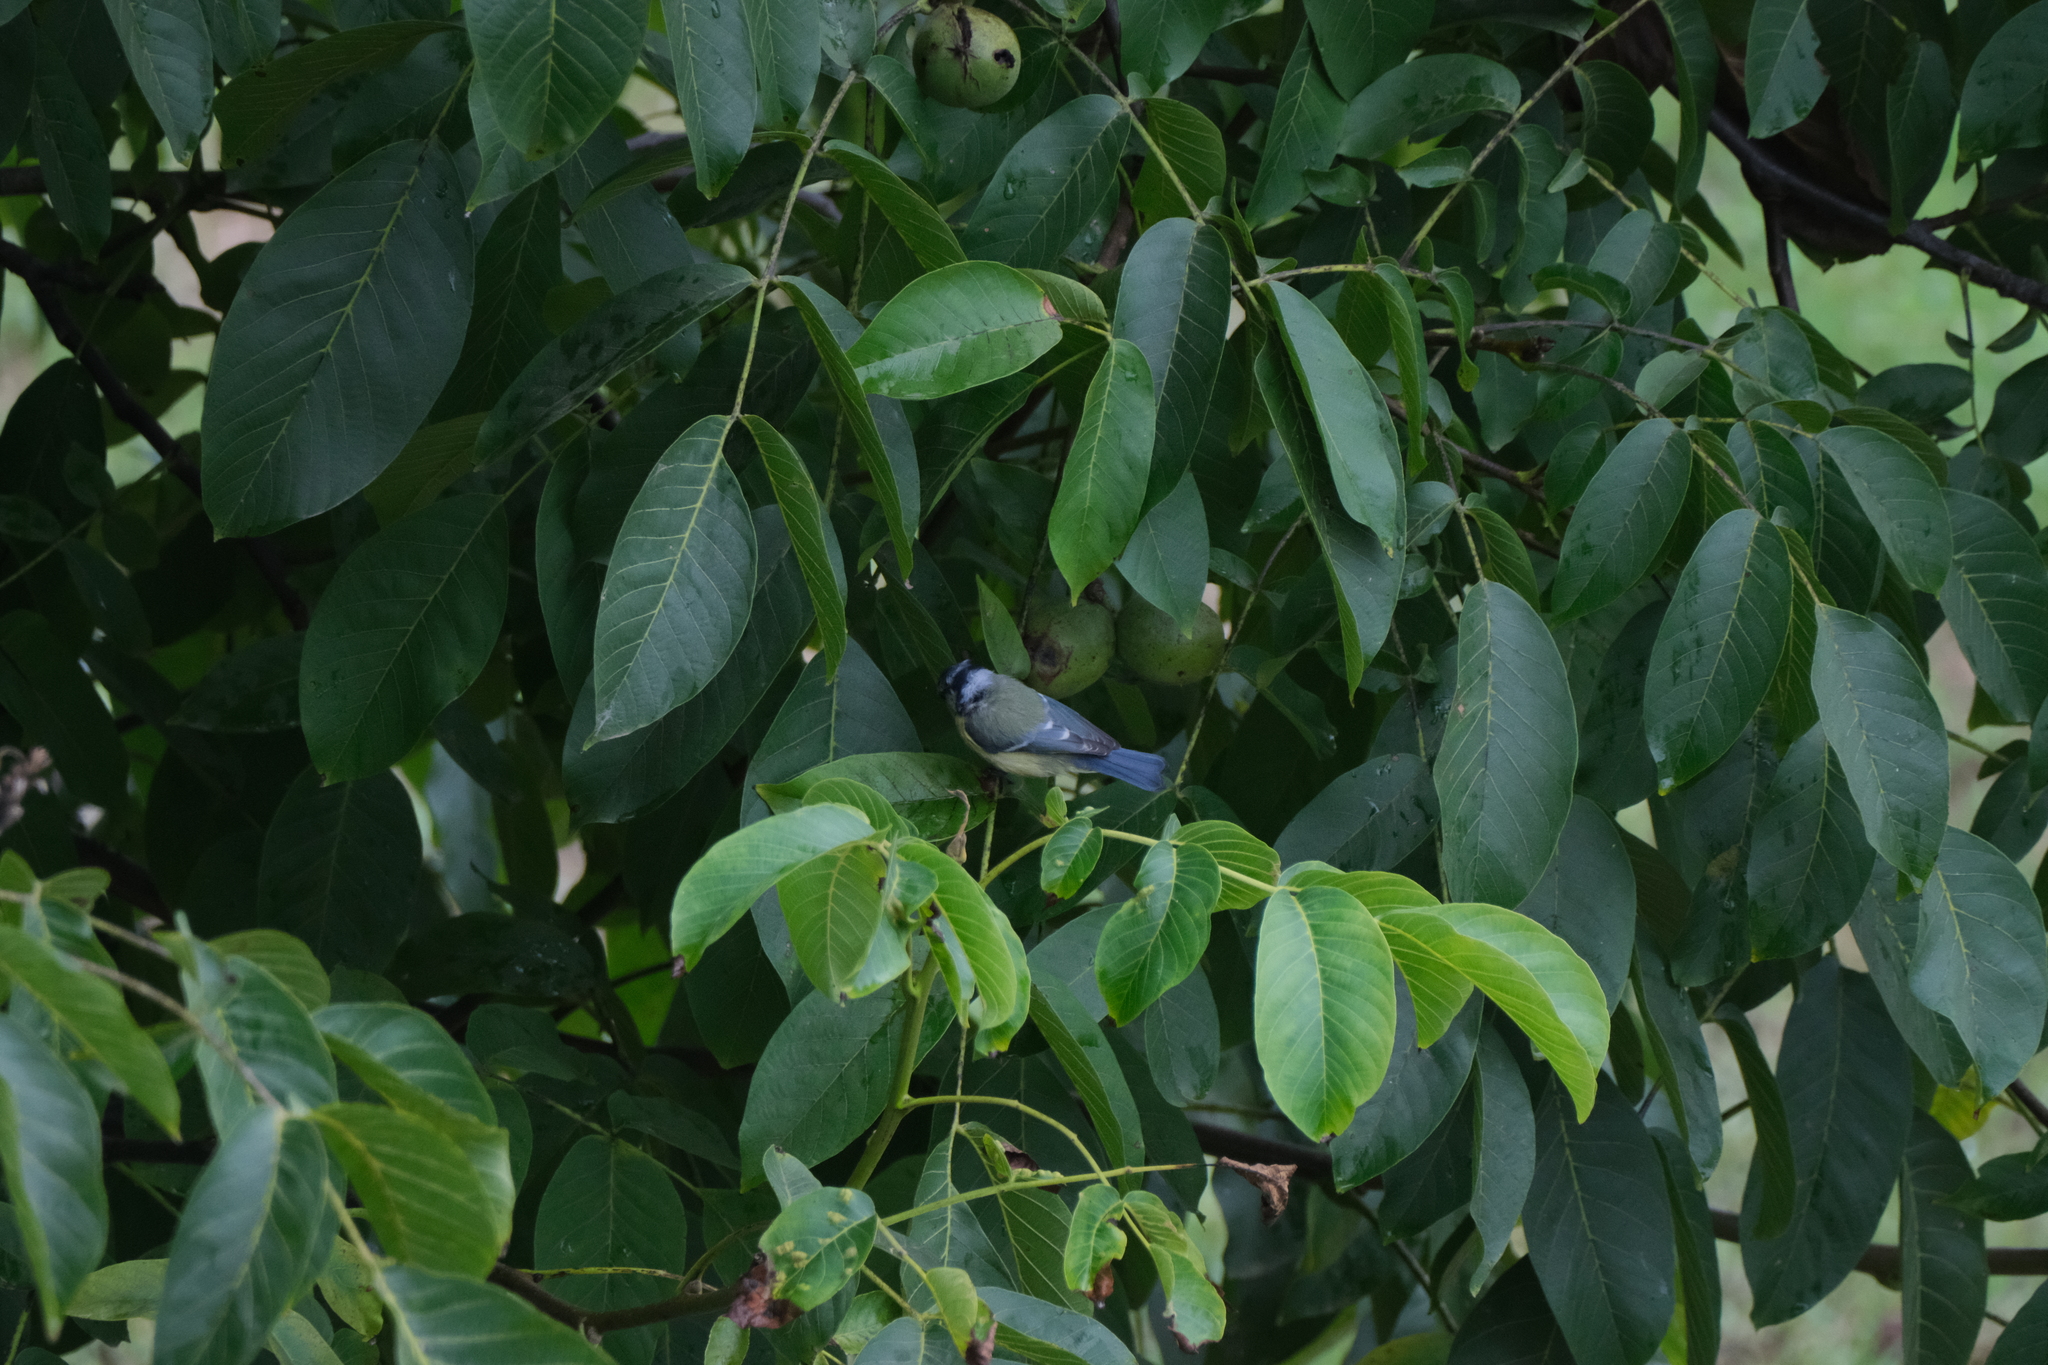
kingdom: Animalia
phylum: Chordata
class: Aves
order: Passeriformes
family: Paridae
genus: Cyanistes
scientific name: Cyanistes caeruleus
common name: Eurasian blue tit
